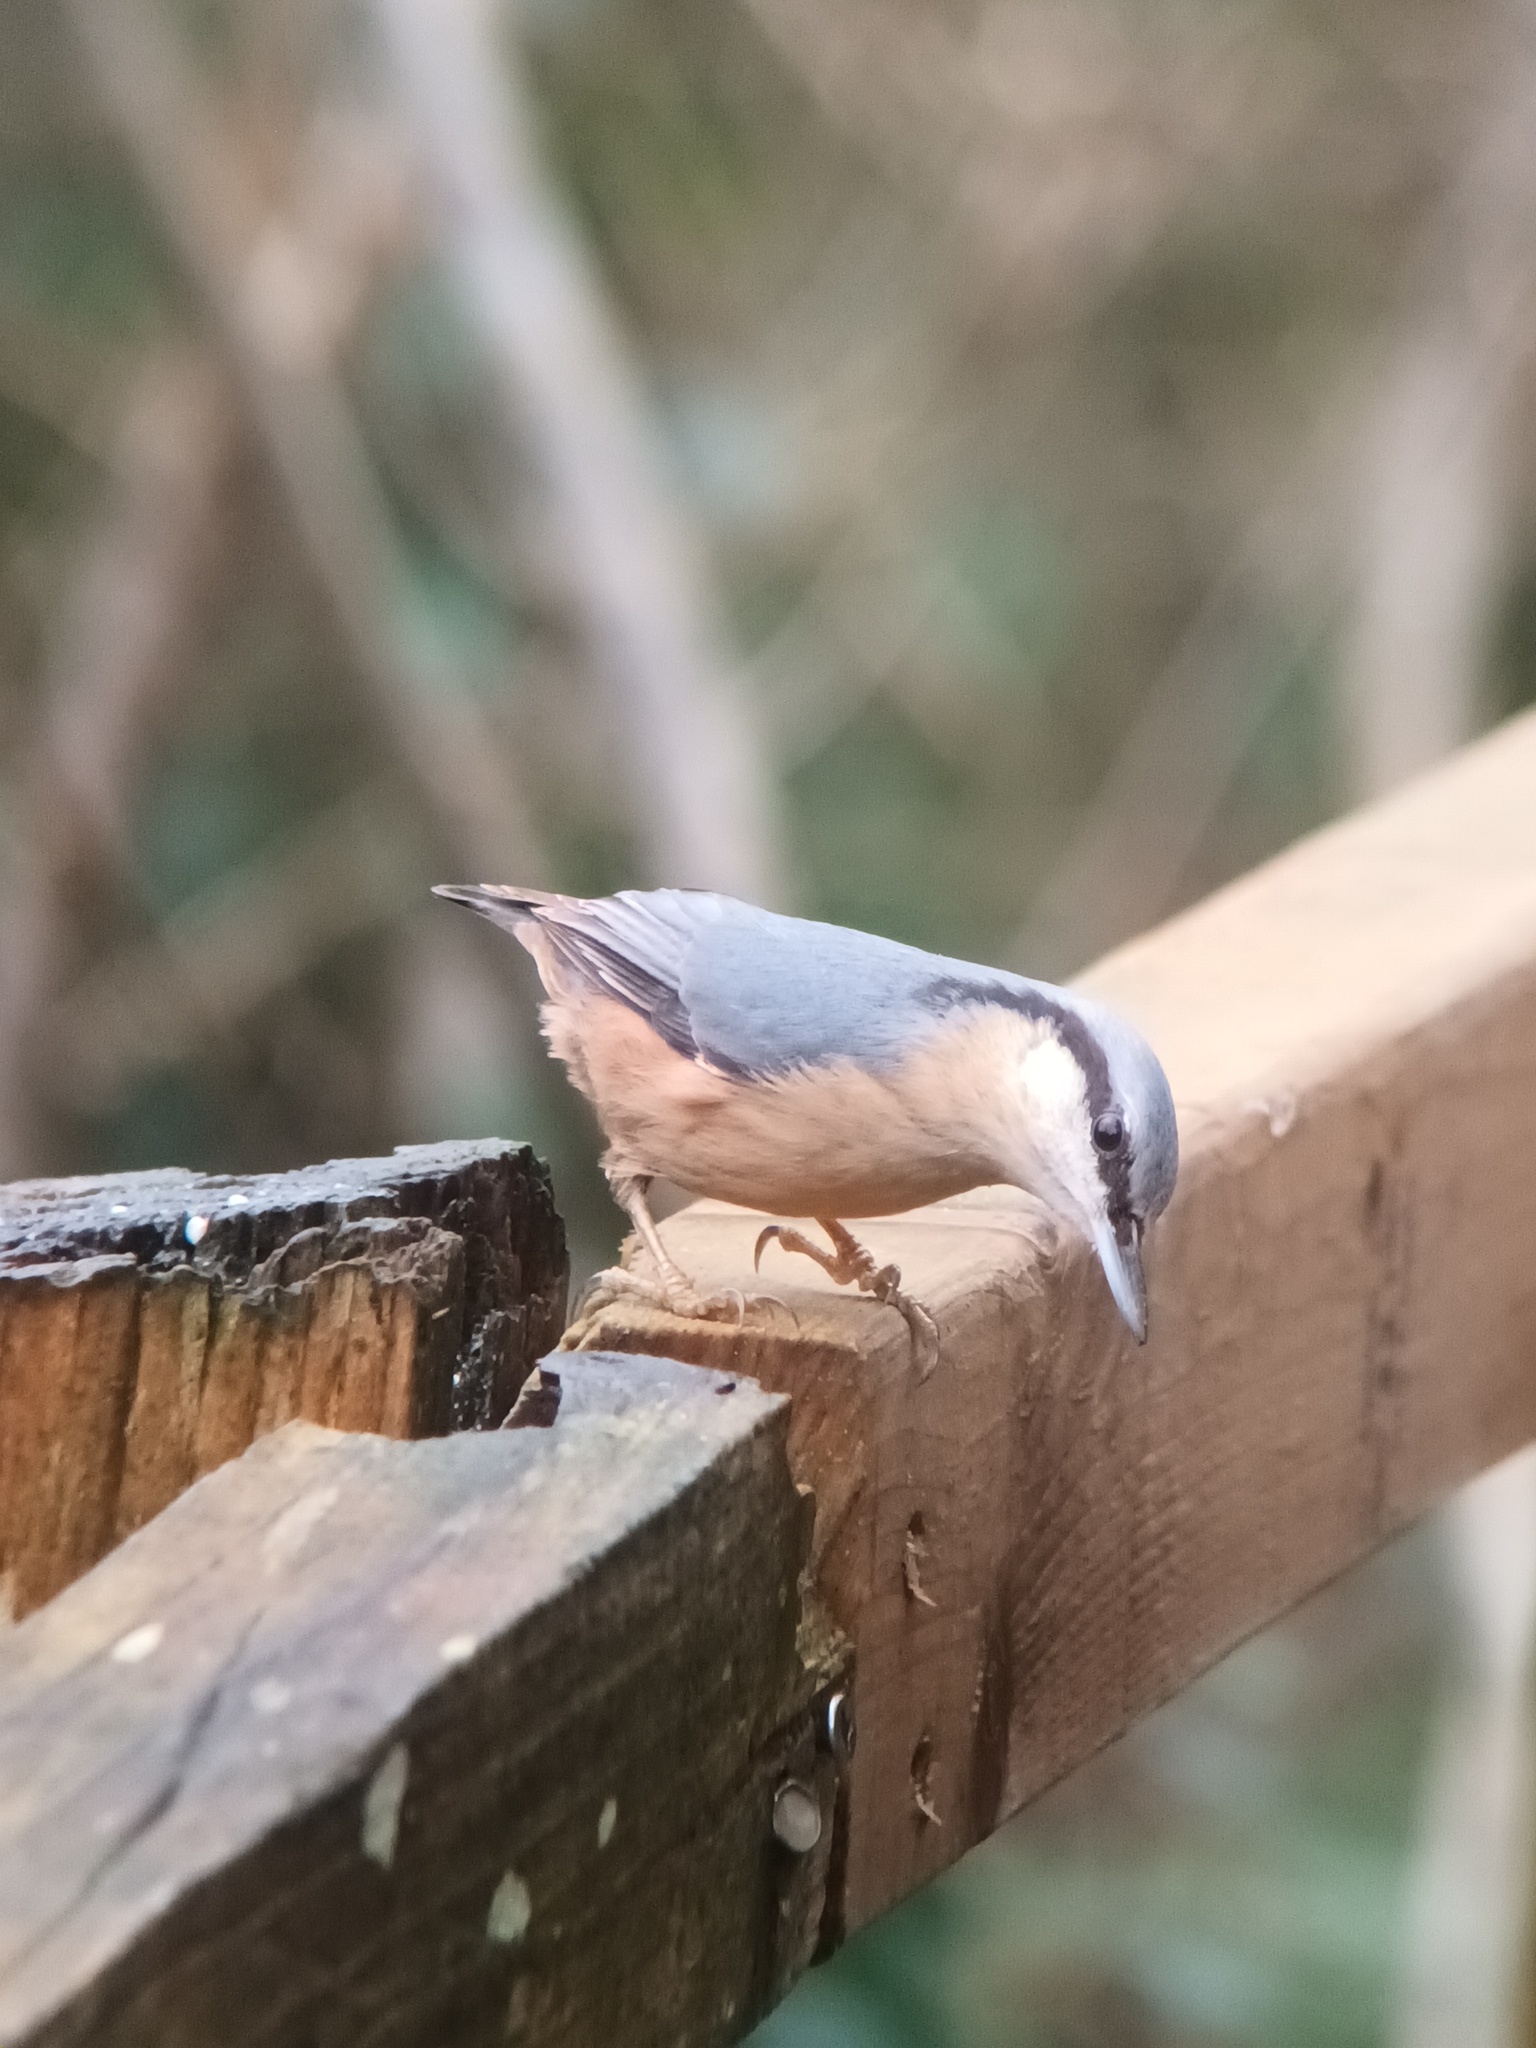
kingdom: Animalia
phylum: Chordata
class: Aves
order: Passeriformes
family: Sittidae
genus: Sitta
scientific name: Sitta europaea
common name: Eurasian nuthatch
